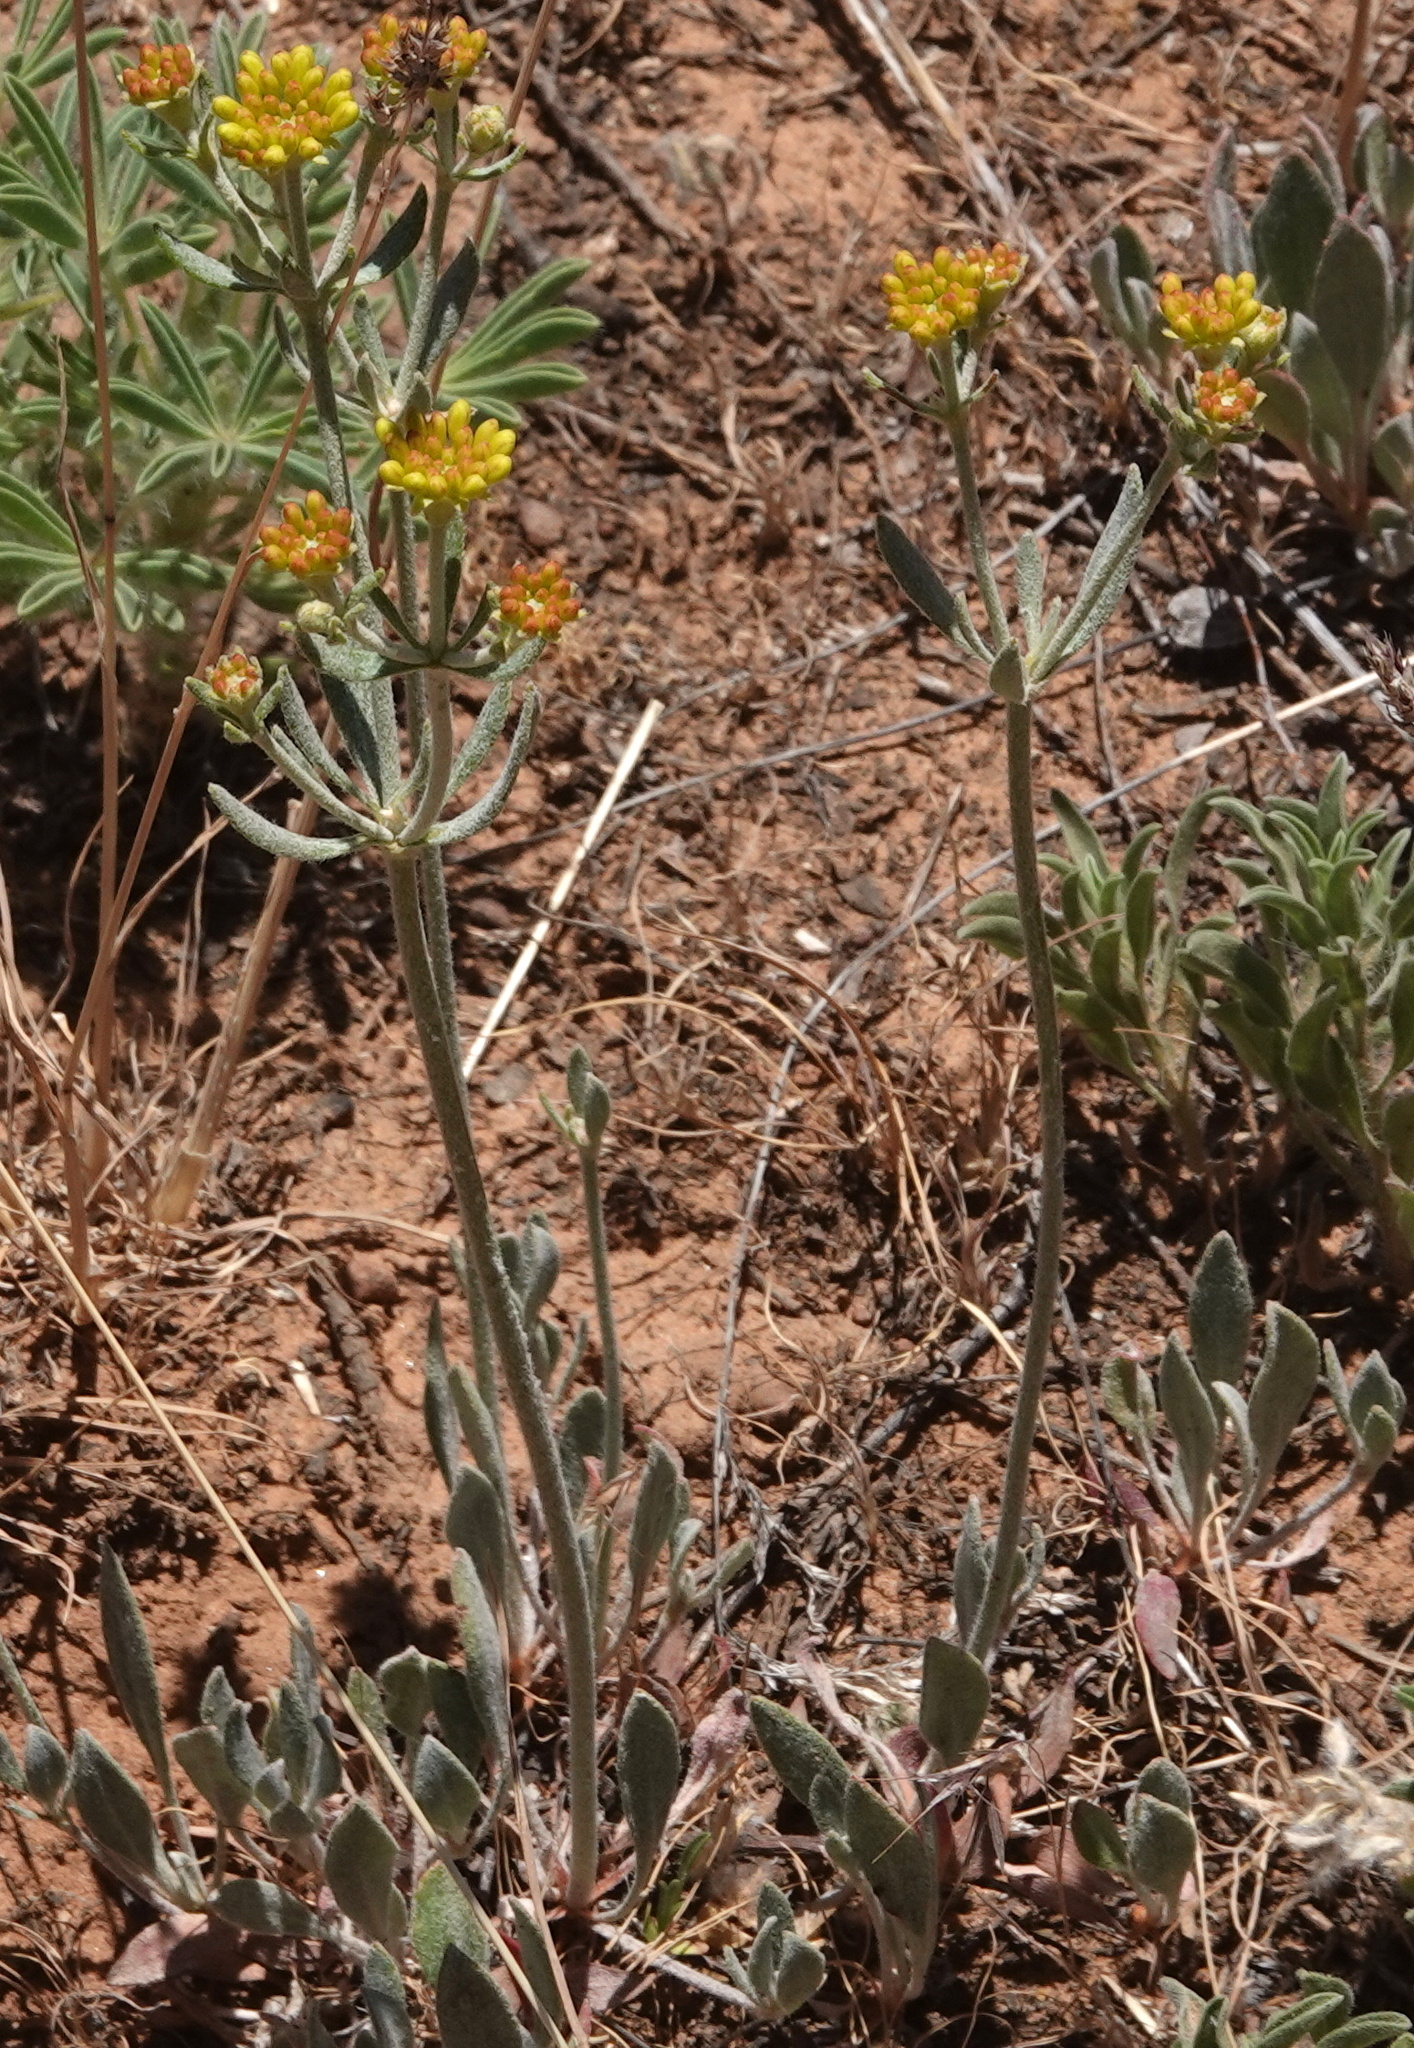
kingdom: Plantae
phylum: Tracheophyta
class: Magnoliopsida
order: Caryophyllales
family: Polygonaceae
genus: Eriogonum
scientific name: Eriogonum umbellatum
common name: Sulfur-buckwheat
